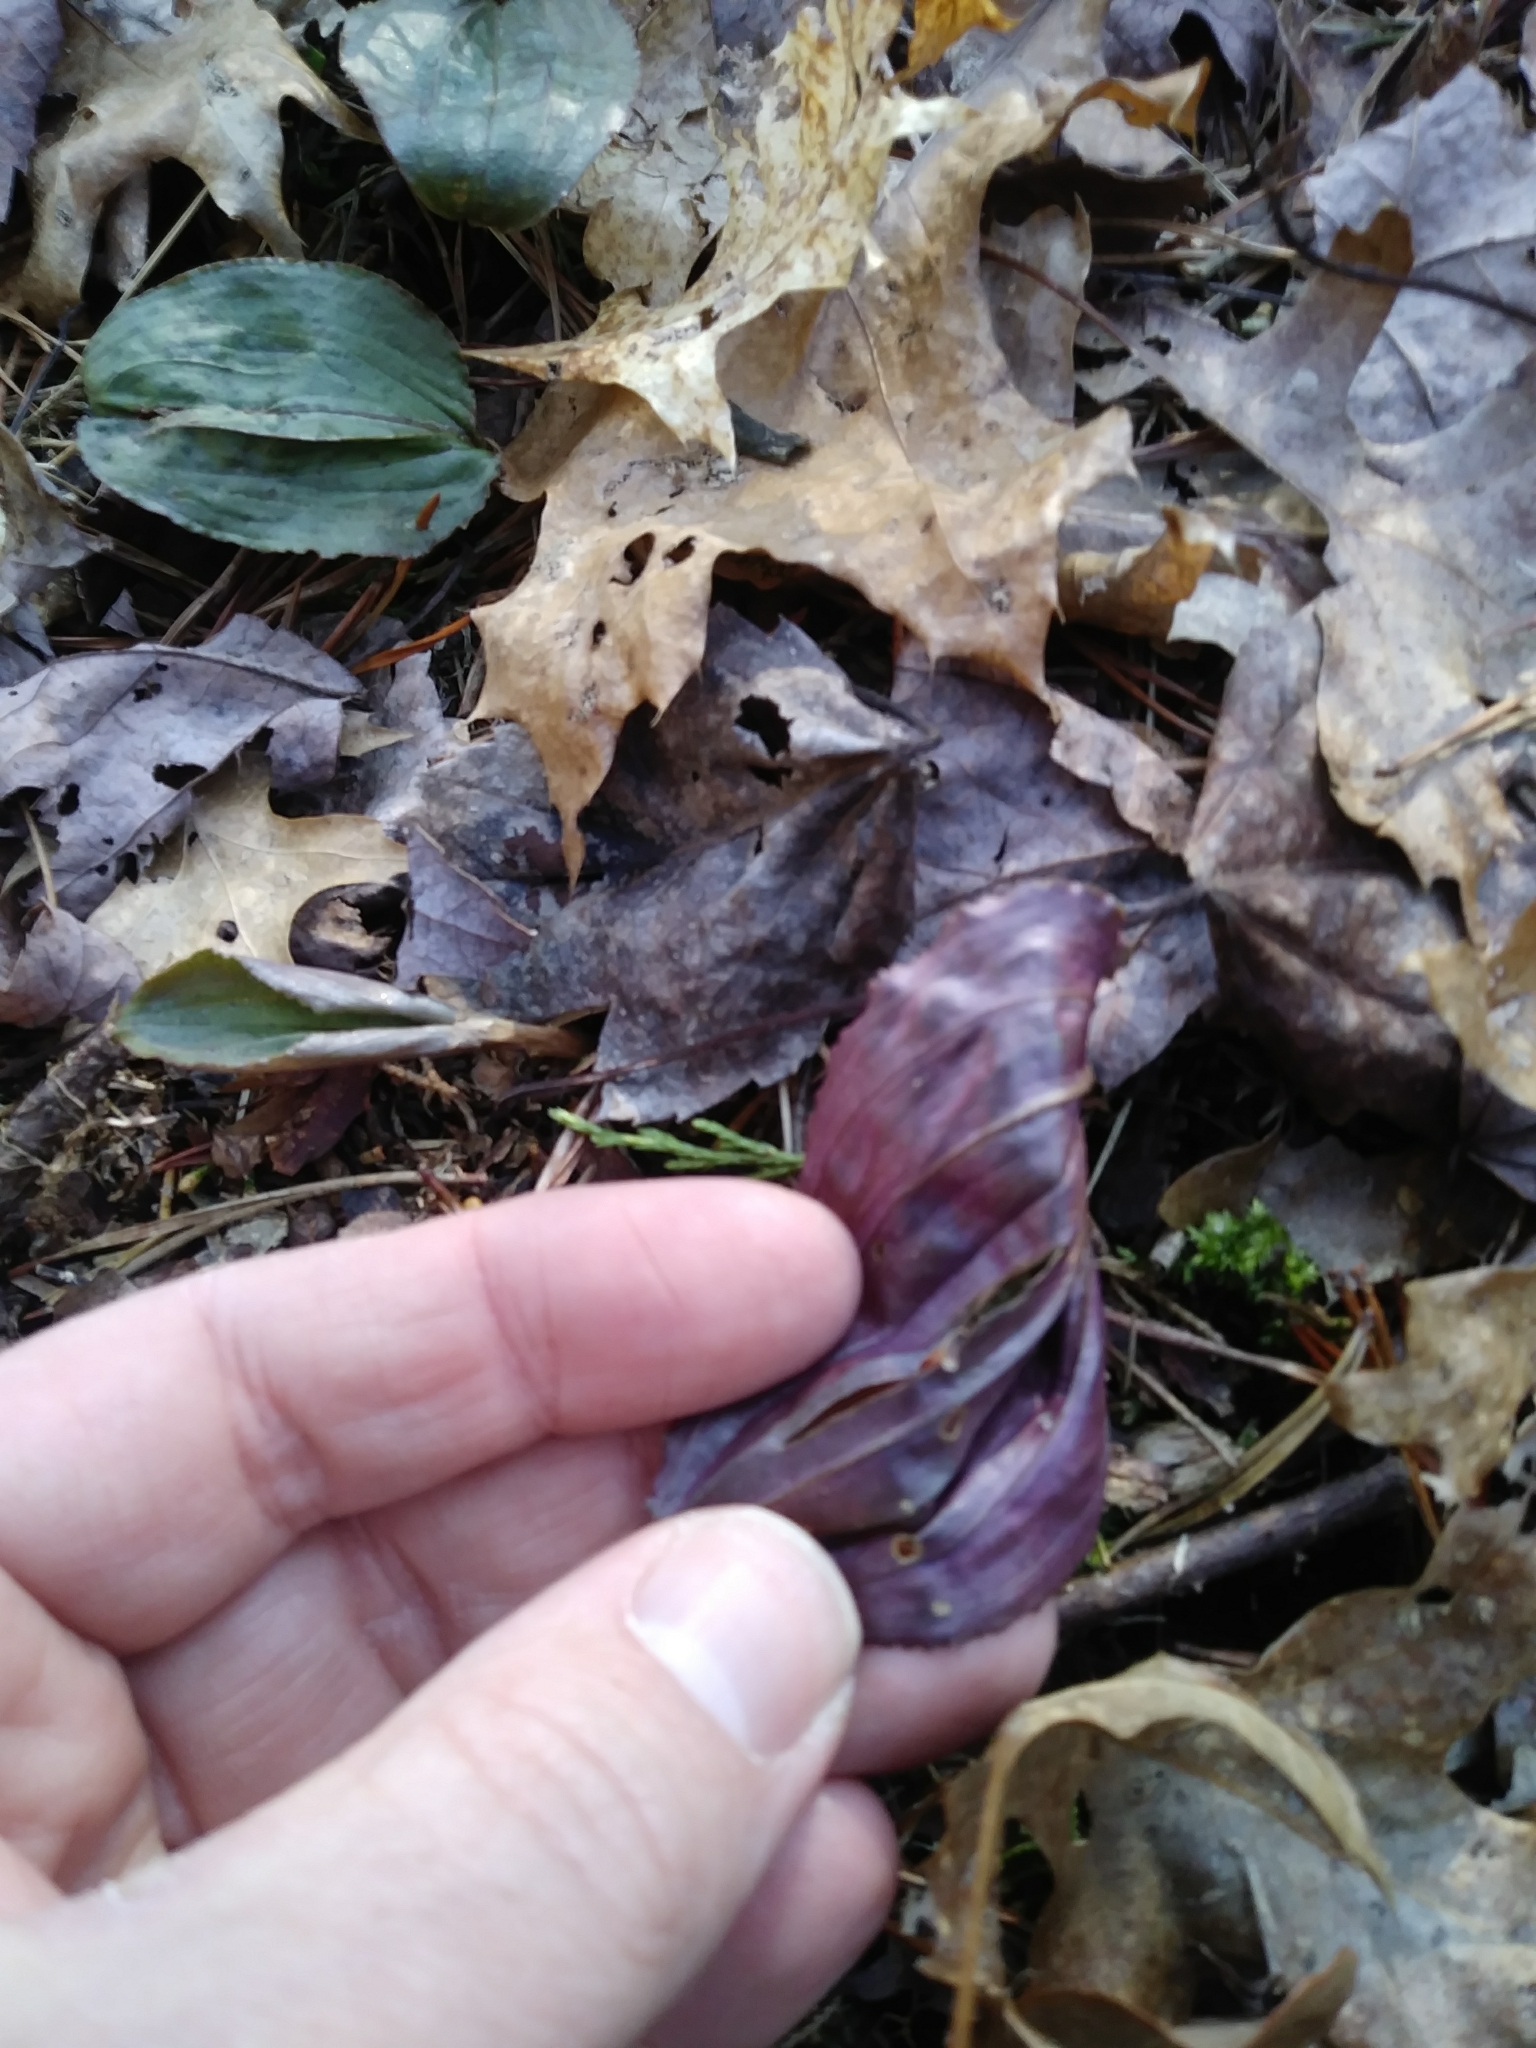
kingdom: Plantae
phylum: Tracheophyta
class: Liliopsida
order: Asparagales
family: Orchidaceae
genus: Tipularia
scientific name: Tipularia discolor
